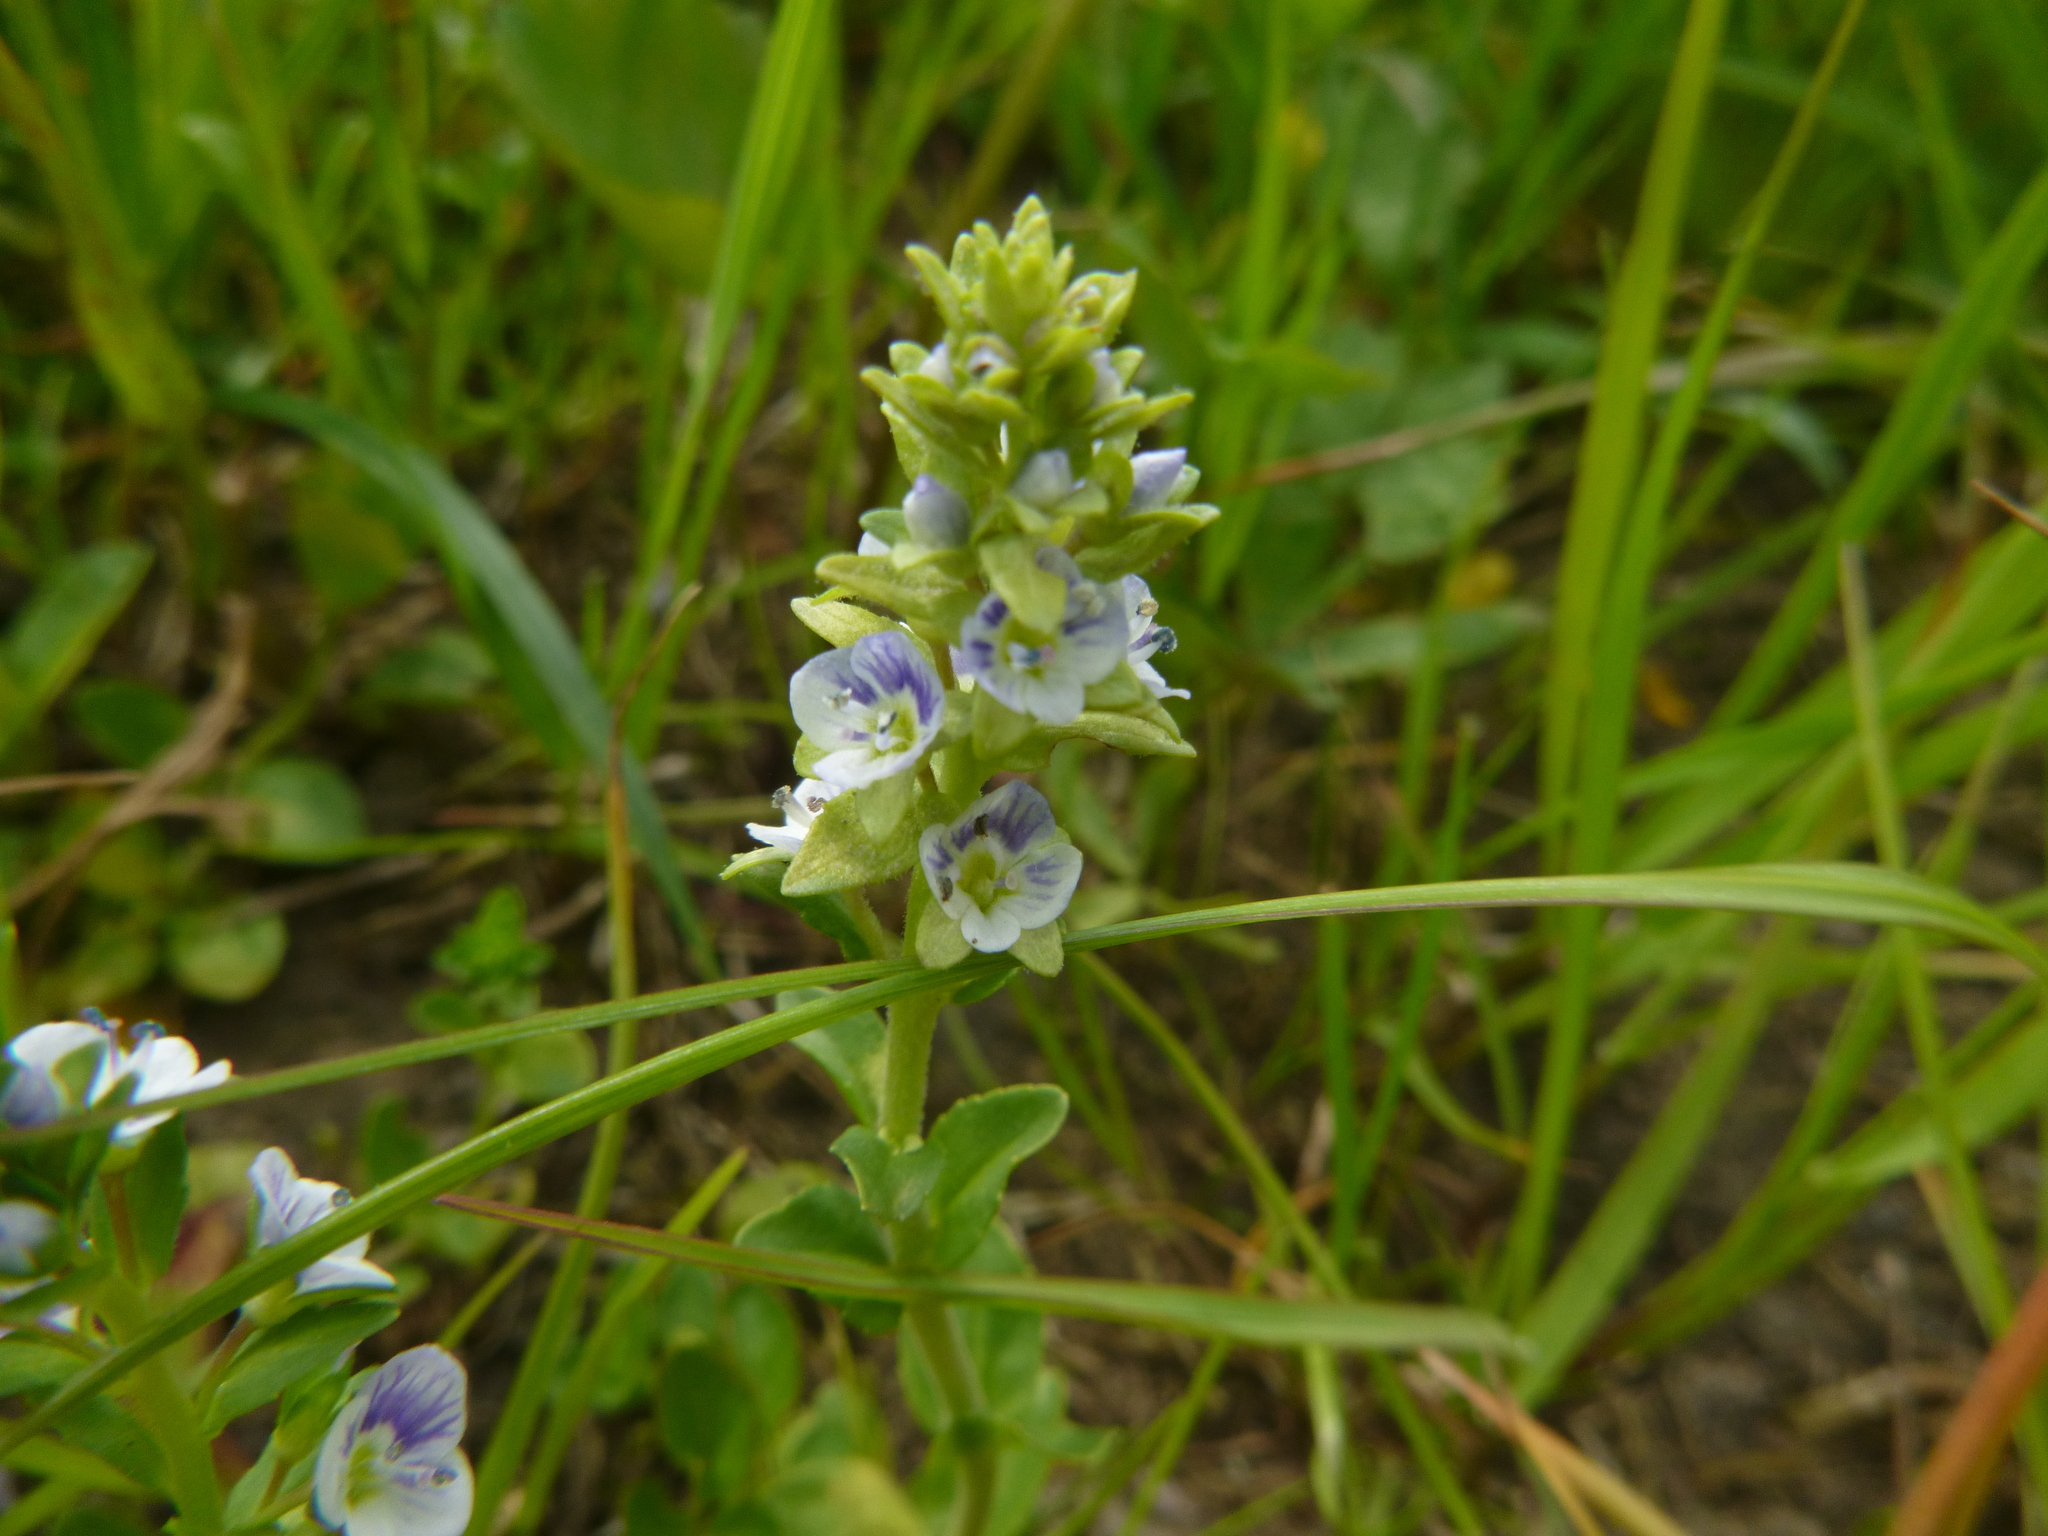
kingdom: Plantae
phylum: Tracheophyta
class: Magnoliopsida
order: Lamiales
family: Plantaginaceae
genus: Veronica
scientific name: Veronica serpyllifolia
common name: Thyme-leaved speedwell
